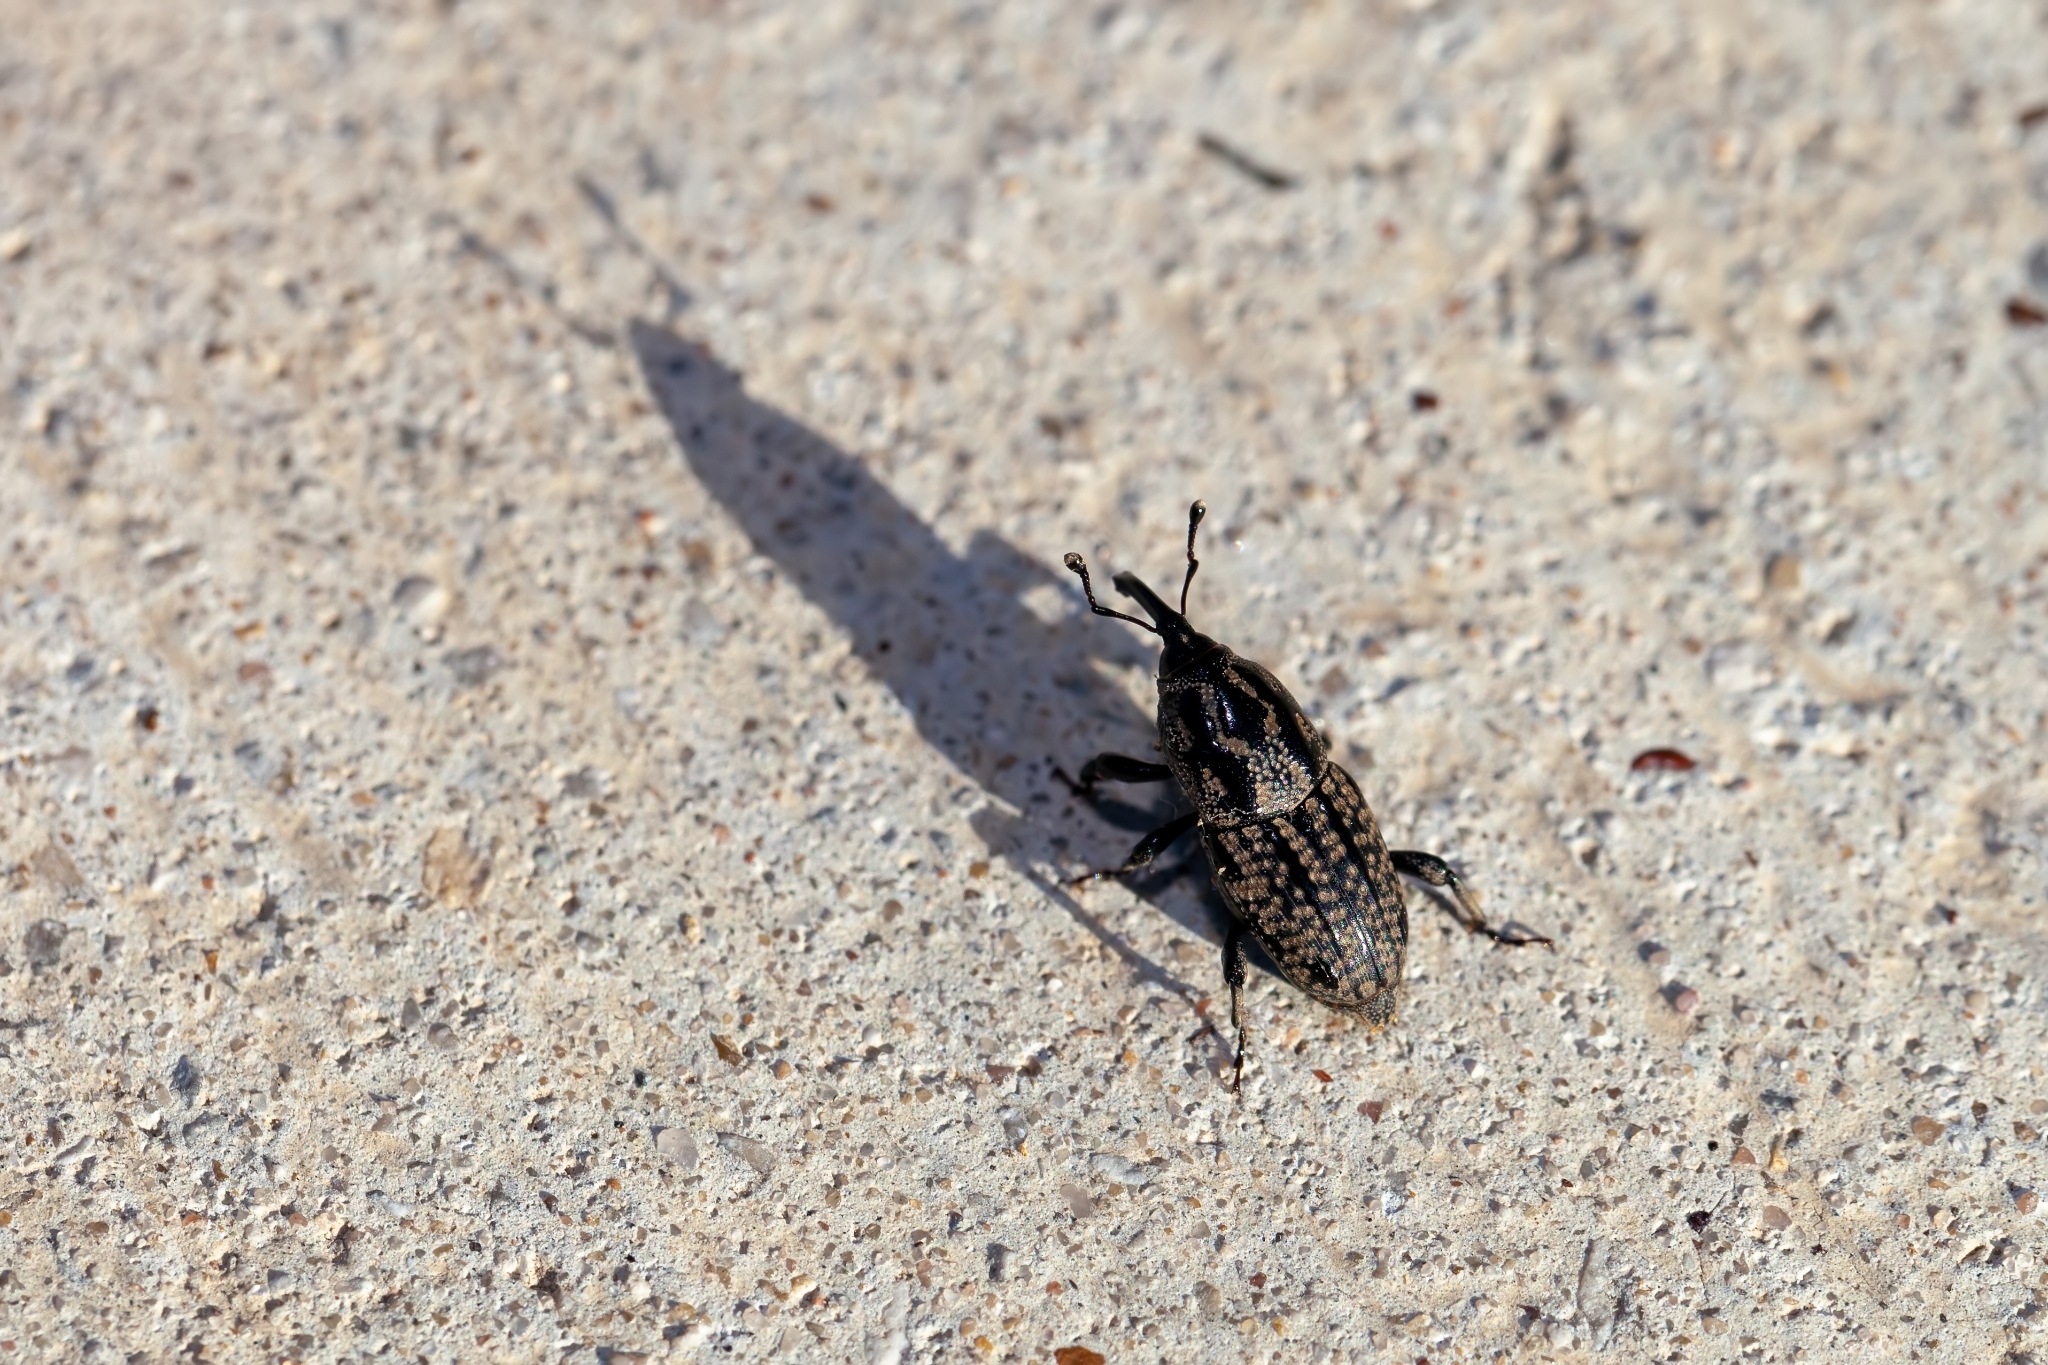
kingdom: Animalia
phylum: Arthropoda
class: Insecta
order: Coleoptera
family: Dryophthoridae
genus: Sphenophorus
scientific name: Sphenophorus cariosus
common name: Weevil
